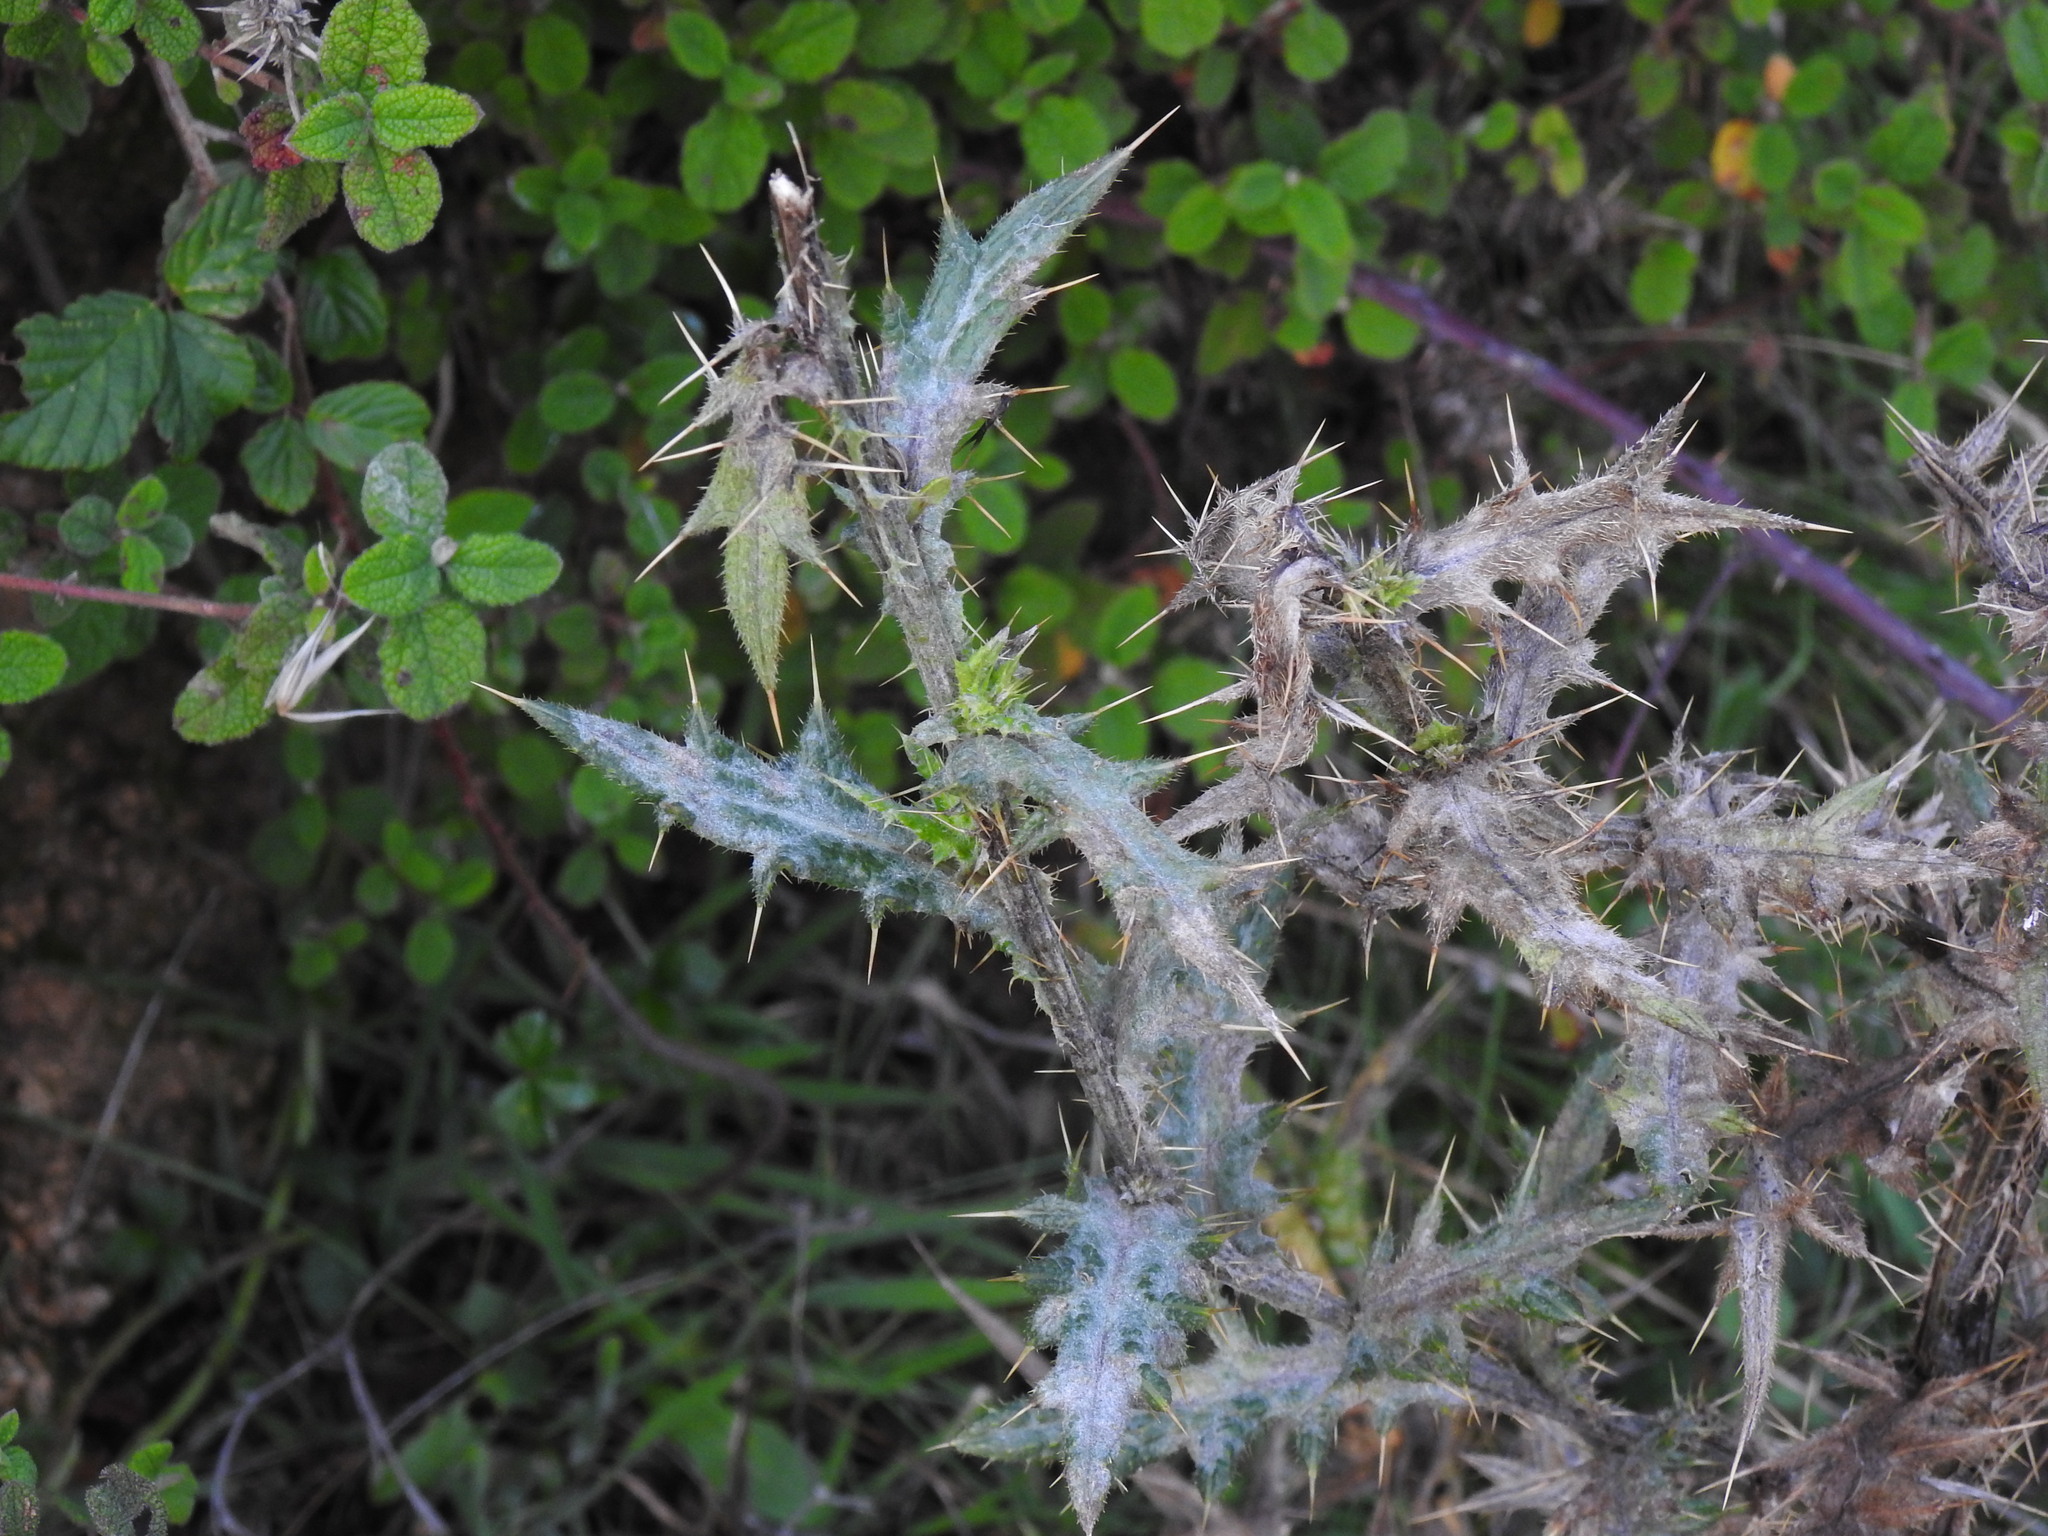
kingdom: Plantae
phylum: Tracheophyta
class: Magnoliopsida
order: Asterales
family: Asteraceae
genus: Cirsium
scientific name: Cirsium vulgare
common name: Bull thistle
